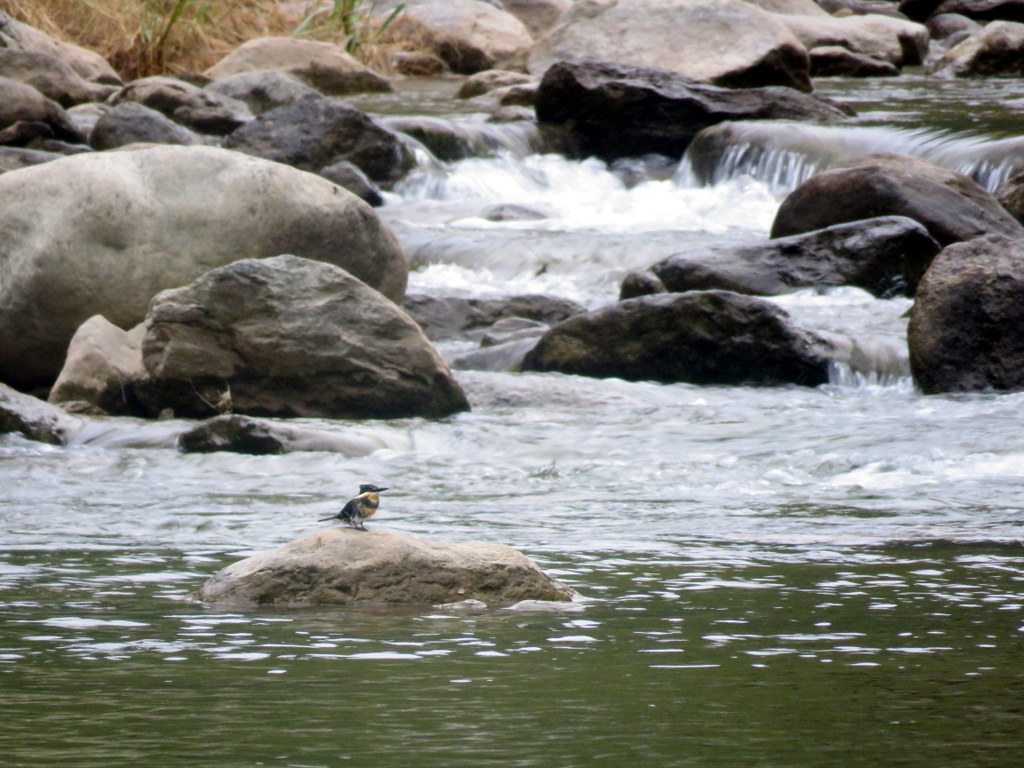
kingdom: Animalia
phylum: Chordata
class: Aves
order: Coraciiformes
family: Alcedinidae
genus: Chloroceryle
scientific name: Chloroceryle americana
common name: Green kingfisher
